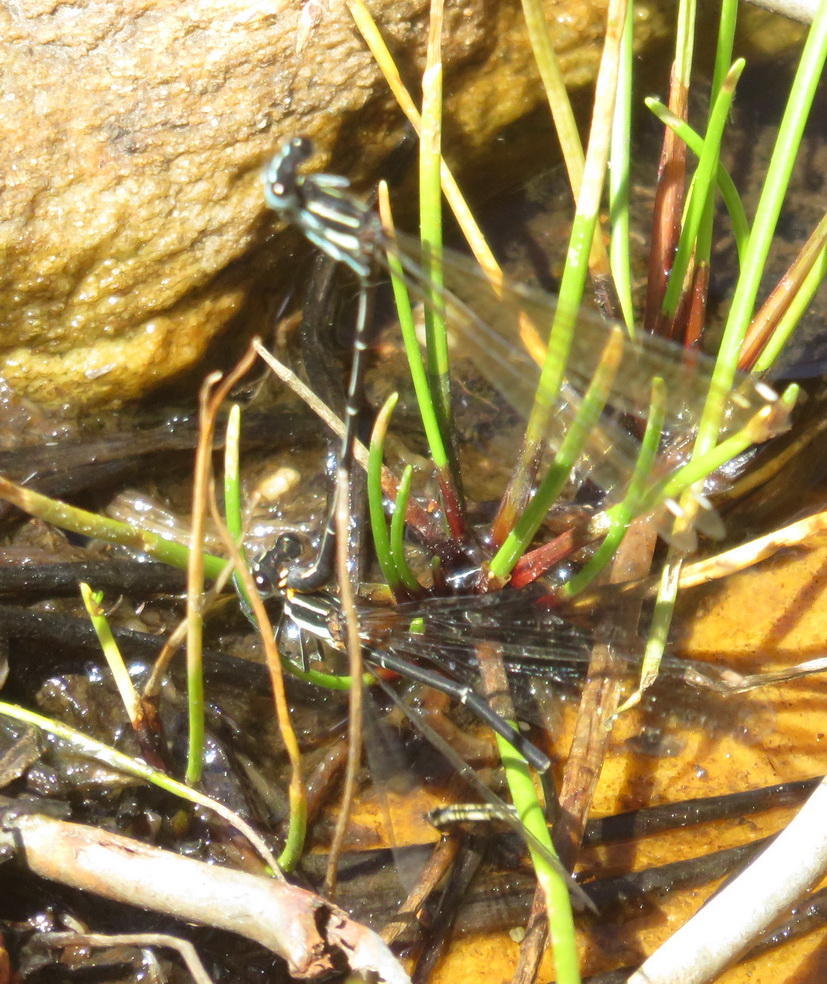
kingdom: Animalia
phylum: Arthropoda
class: Insecta
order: Odonata
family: Platycnemididae
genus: Allocnemis
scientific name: Allocnemis leucosticta
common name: Goldtail
